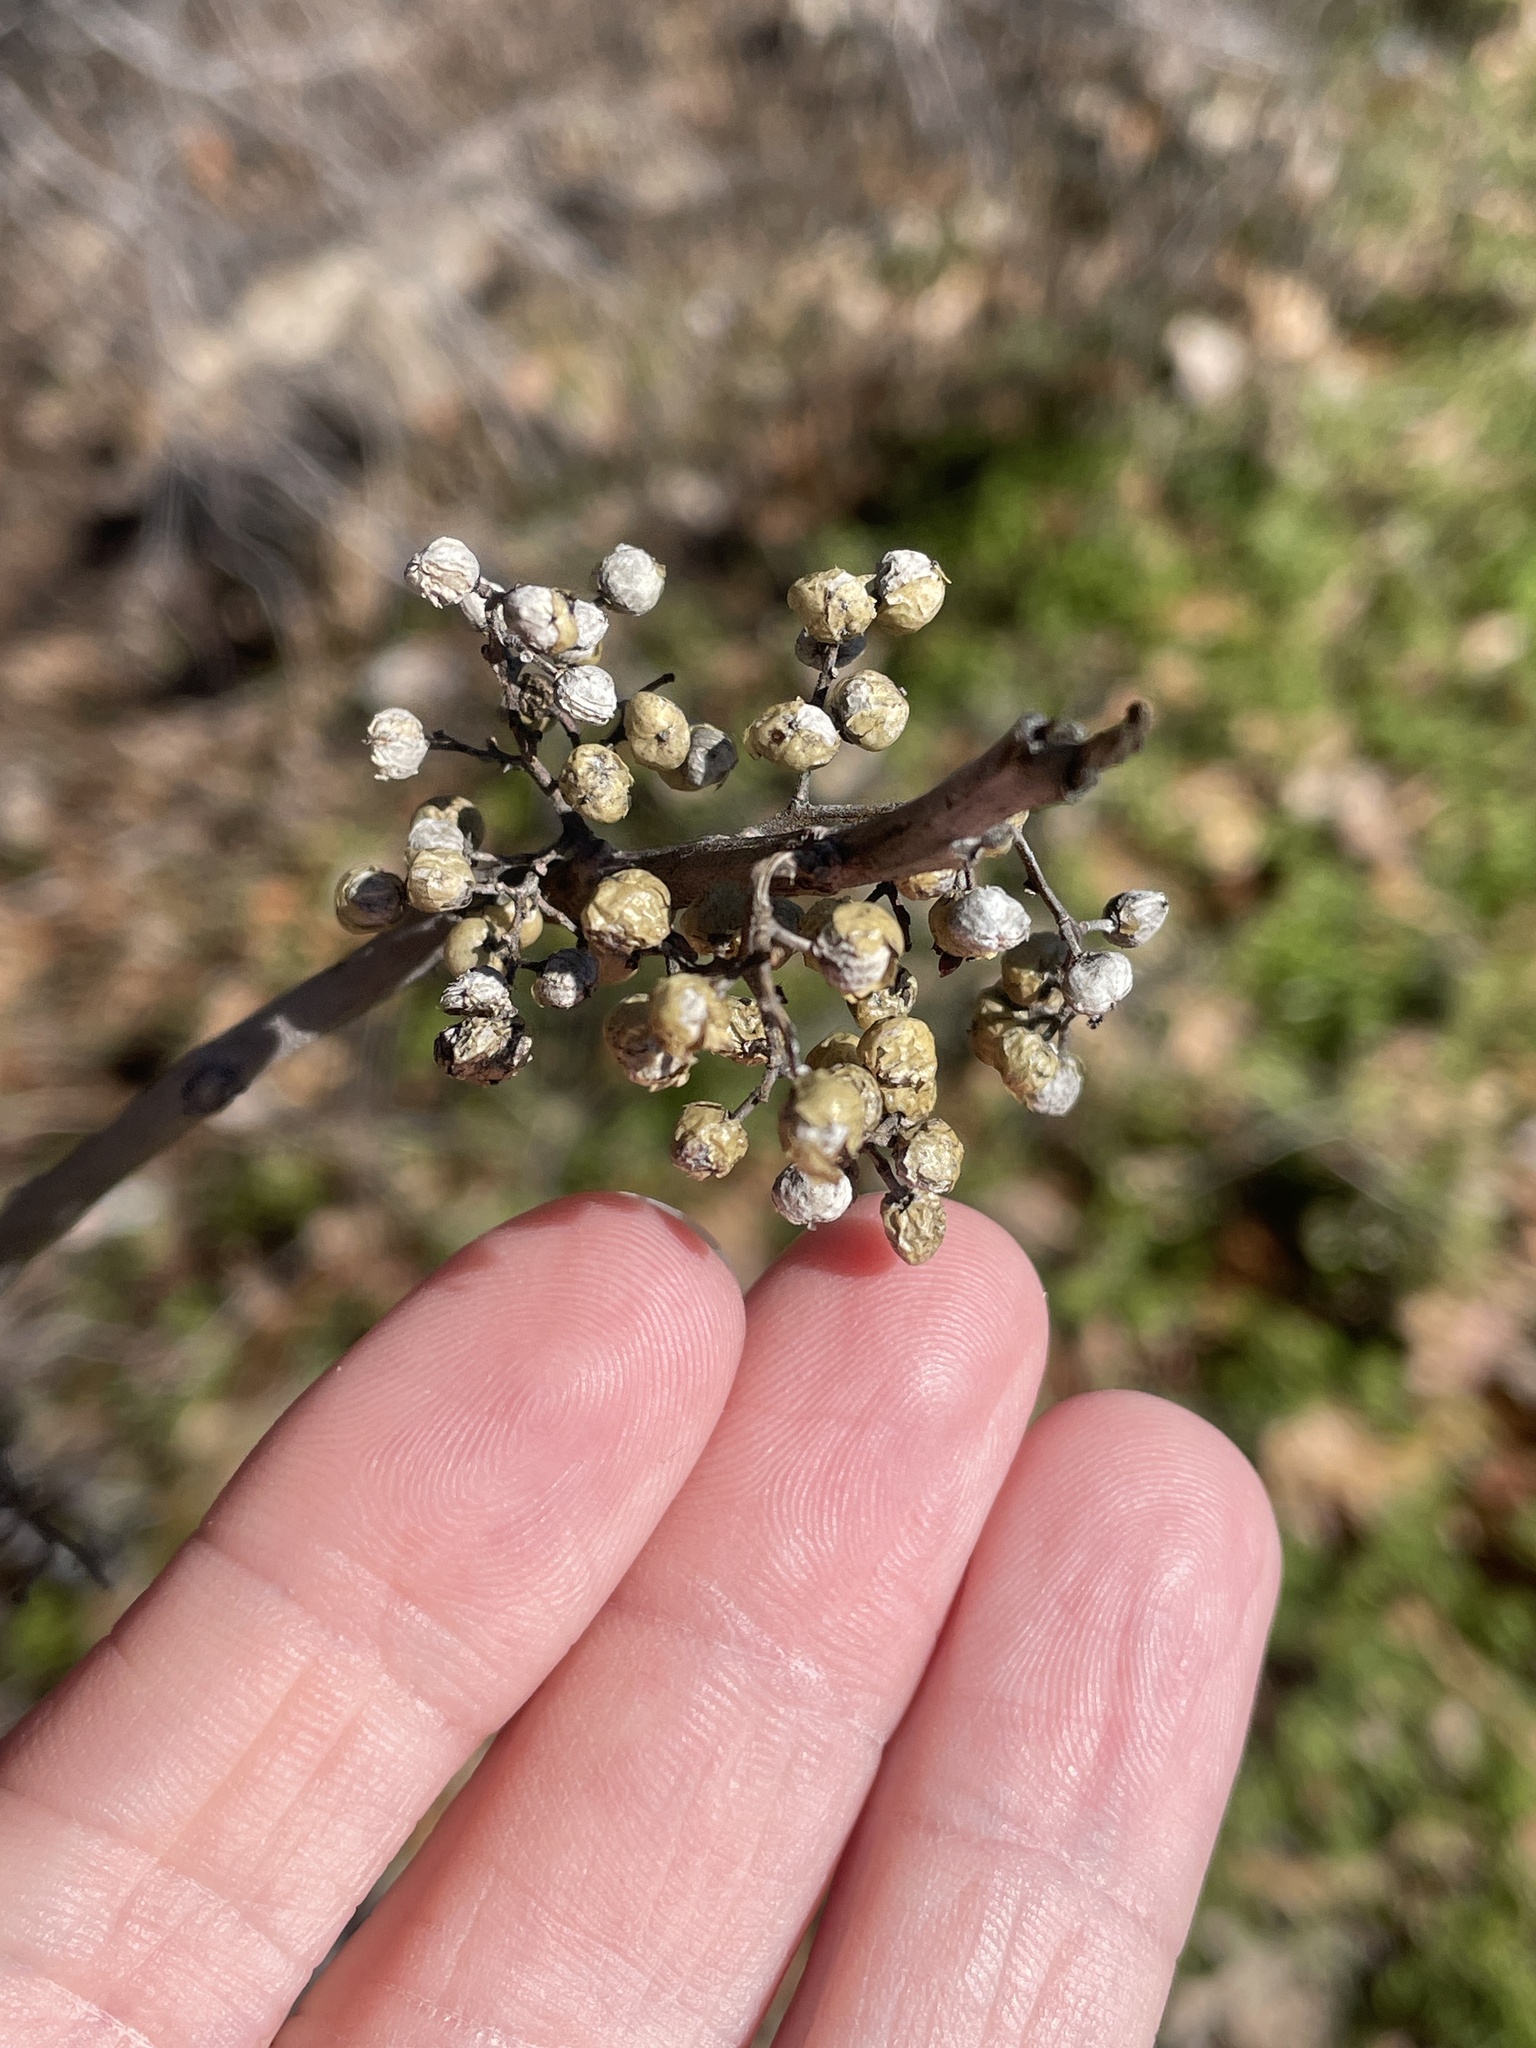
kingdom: Plantae
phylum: Tracheophyta
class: Magnoliopsida
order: Sapindales
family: Anacardiaceae
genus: Toxicodendron
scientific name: Toxicodendron radicans
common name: Poison ivy
